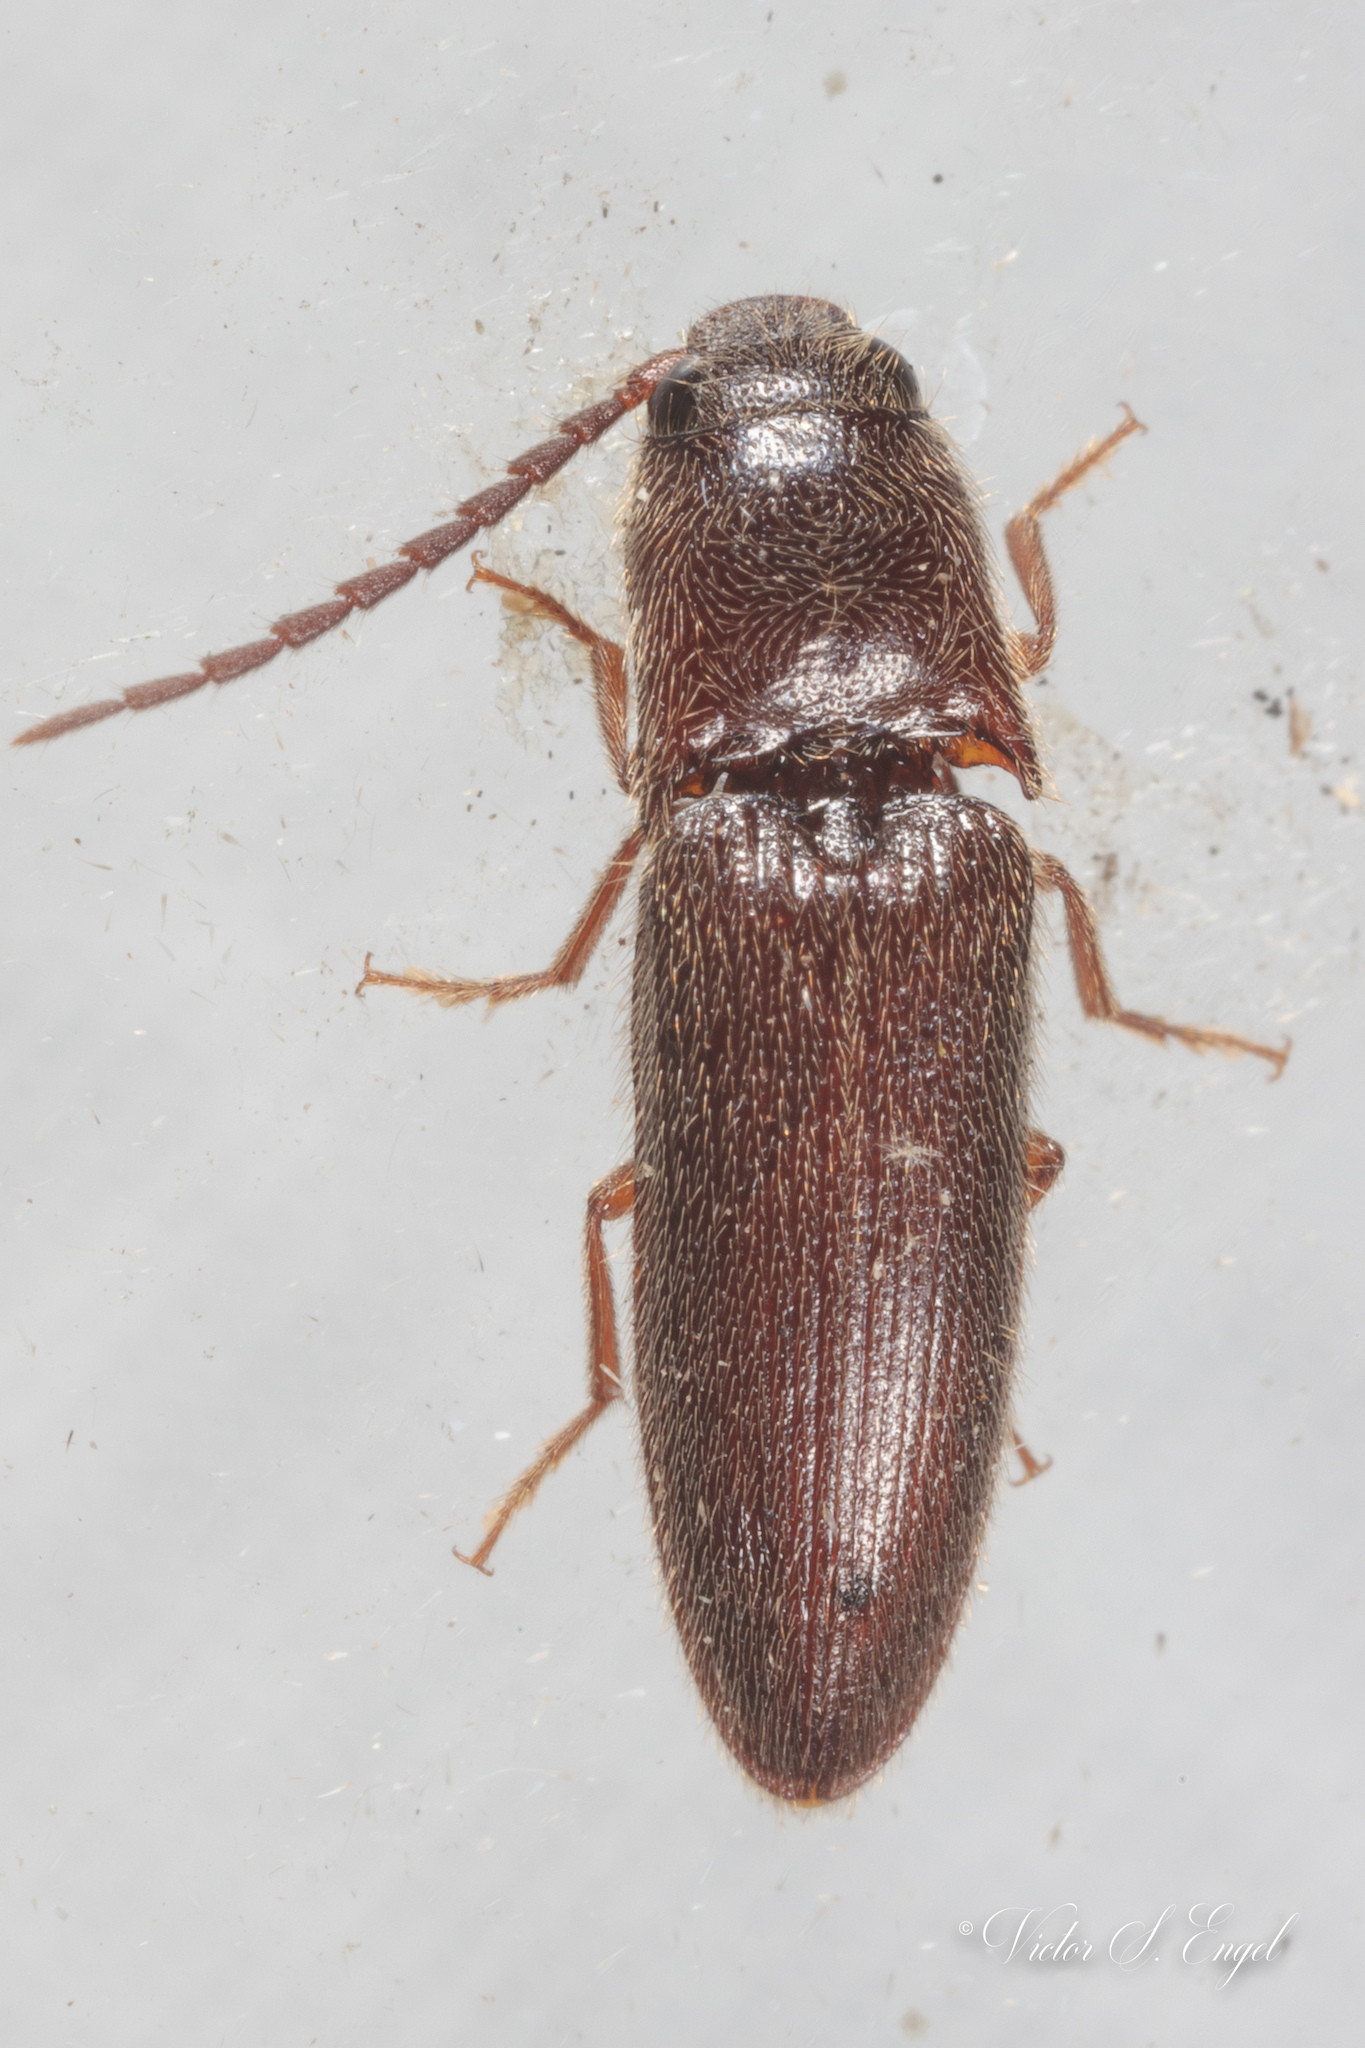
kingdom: Animalia
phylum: Arthropoda
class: Insecta
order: Coleoptera
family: Elateridae
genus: Dipropus
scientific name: Dipropus
